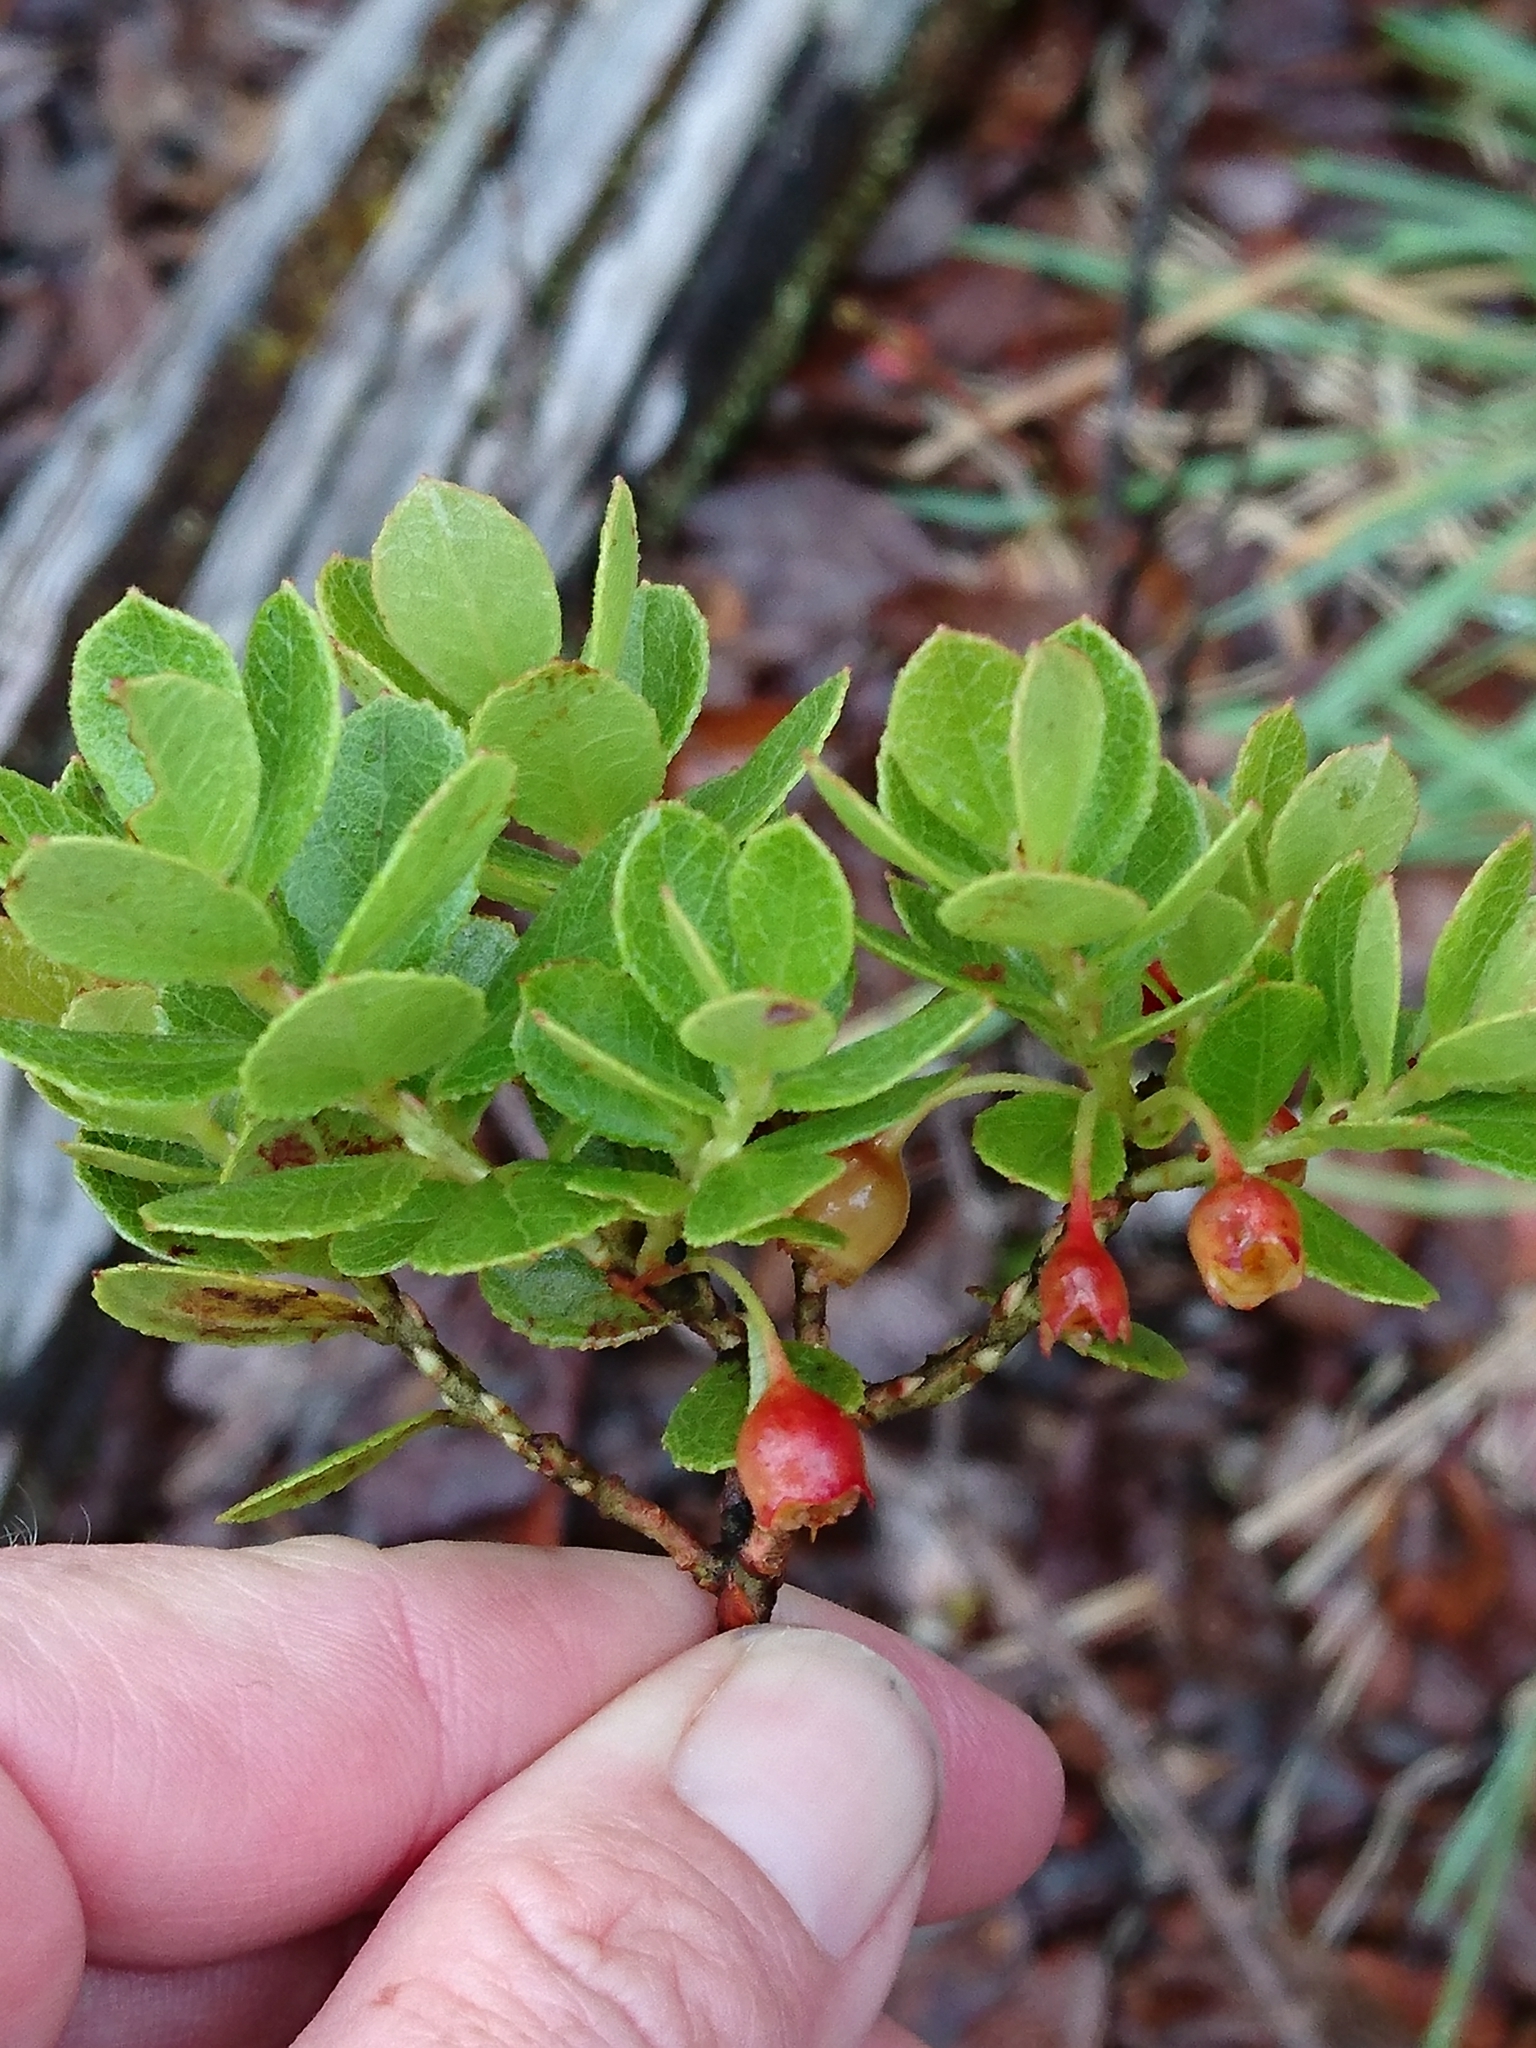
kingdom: Plantae
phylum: Tracheophyta
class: Magnoliopsida
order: Ericales
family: Ericaceae
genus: Vaccinium
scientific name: Vaccinium reticulatum
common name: Ohelo
